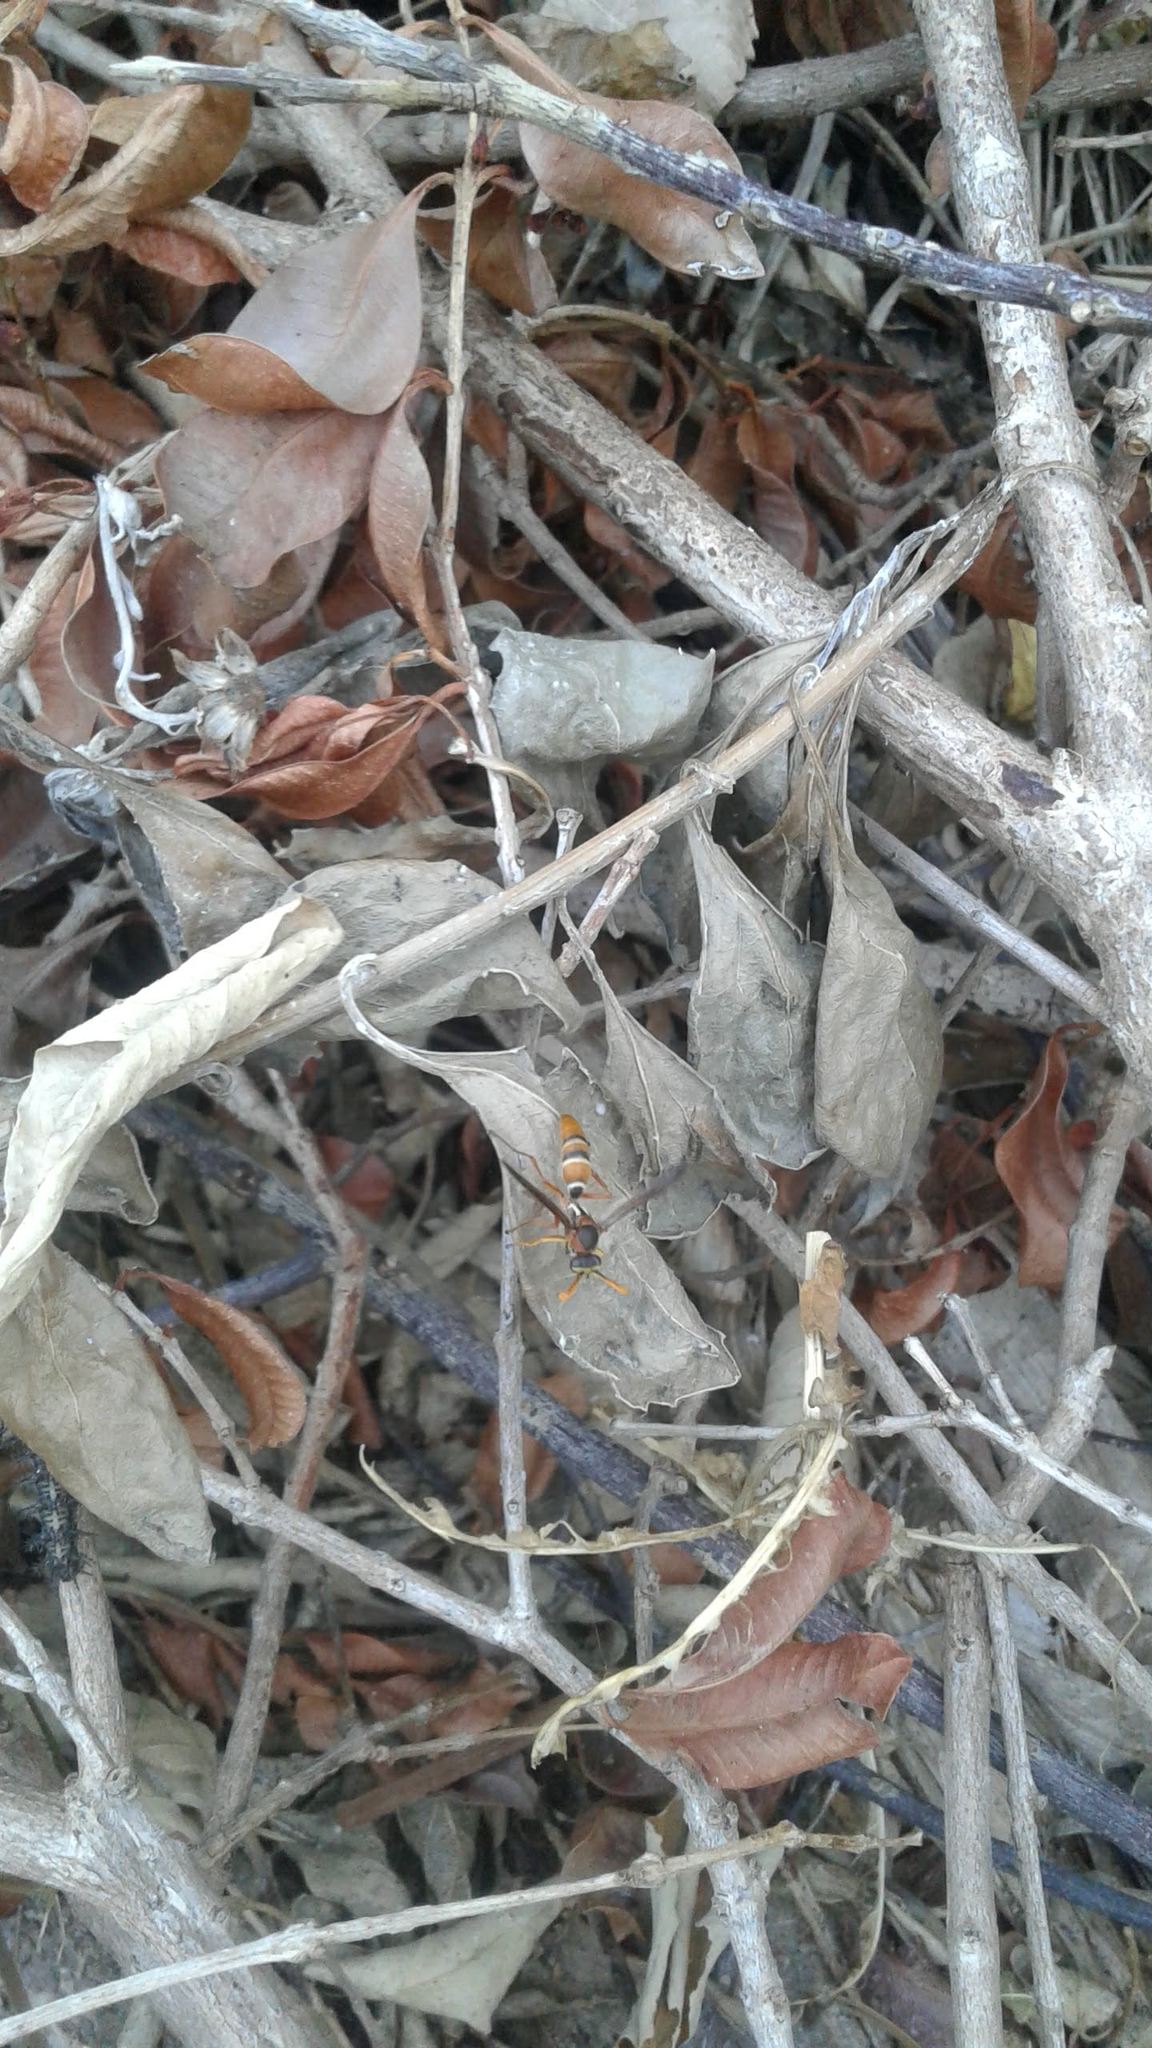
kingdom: Animalia
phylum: Arthropoda
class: Insecta
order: Hymenoptera
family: Eumenidae
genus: Polistes
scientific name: Polistes marginalis
